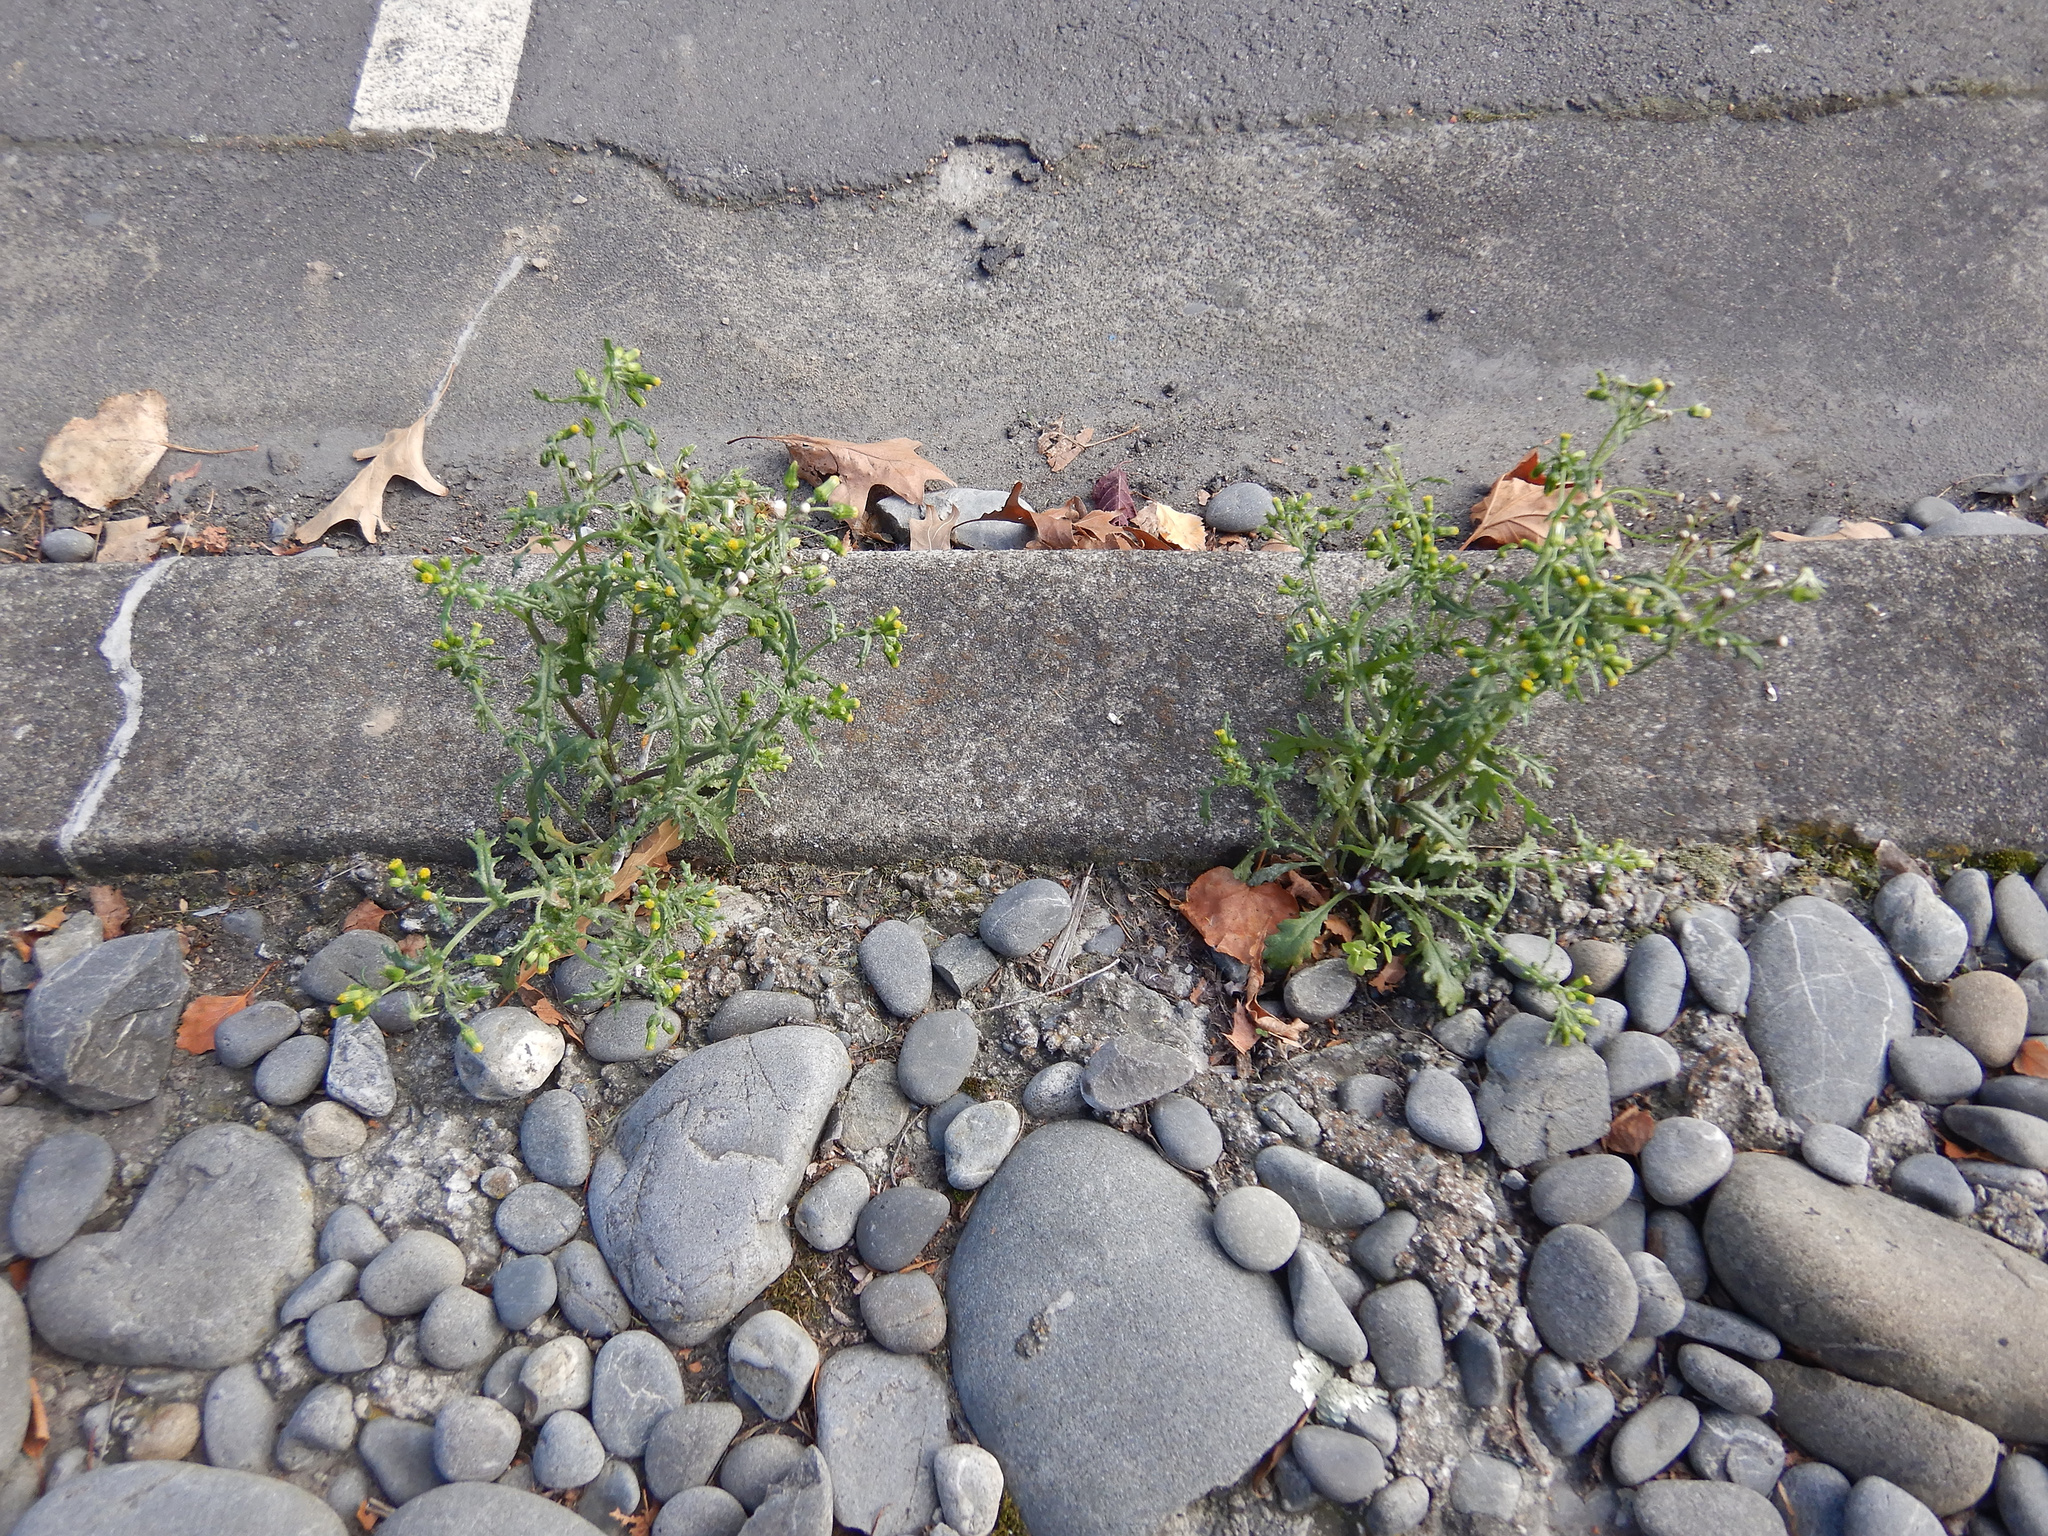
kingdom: Plantae
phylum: Tracheophyta
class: Magnoliopsida
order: Asterales
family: Asteraceae
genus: Senecio
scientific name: Senecio vulgaris
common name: Old-man-in-the-spring
